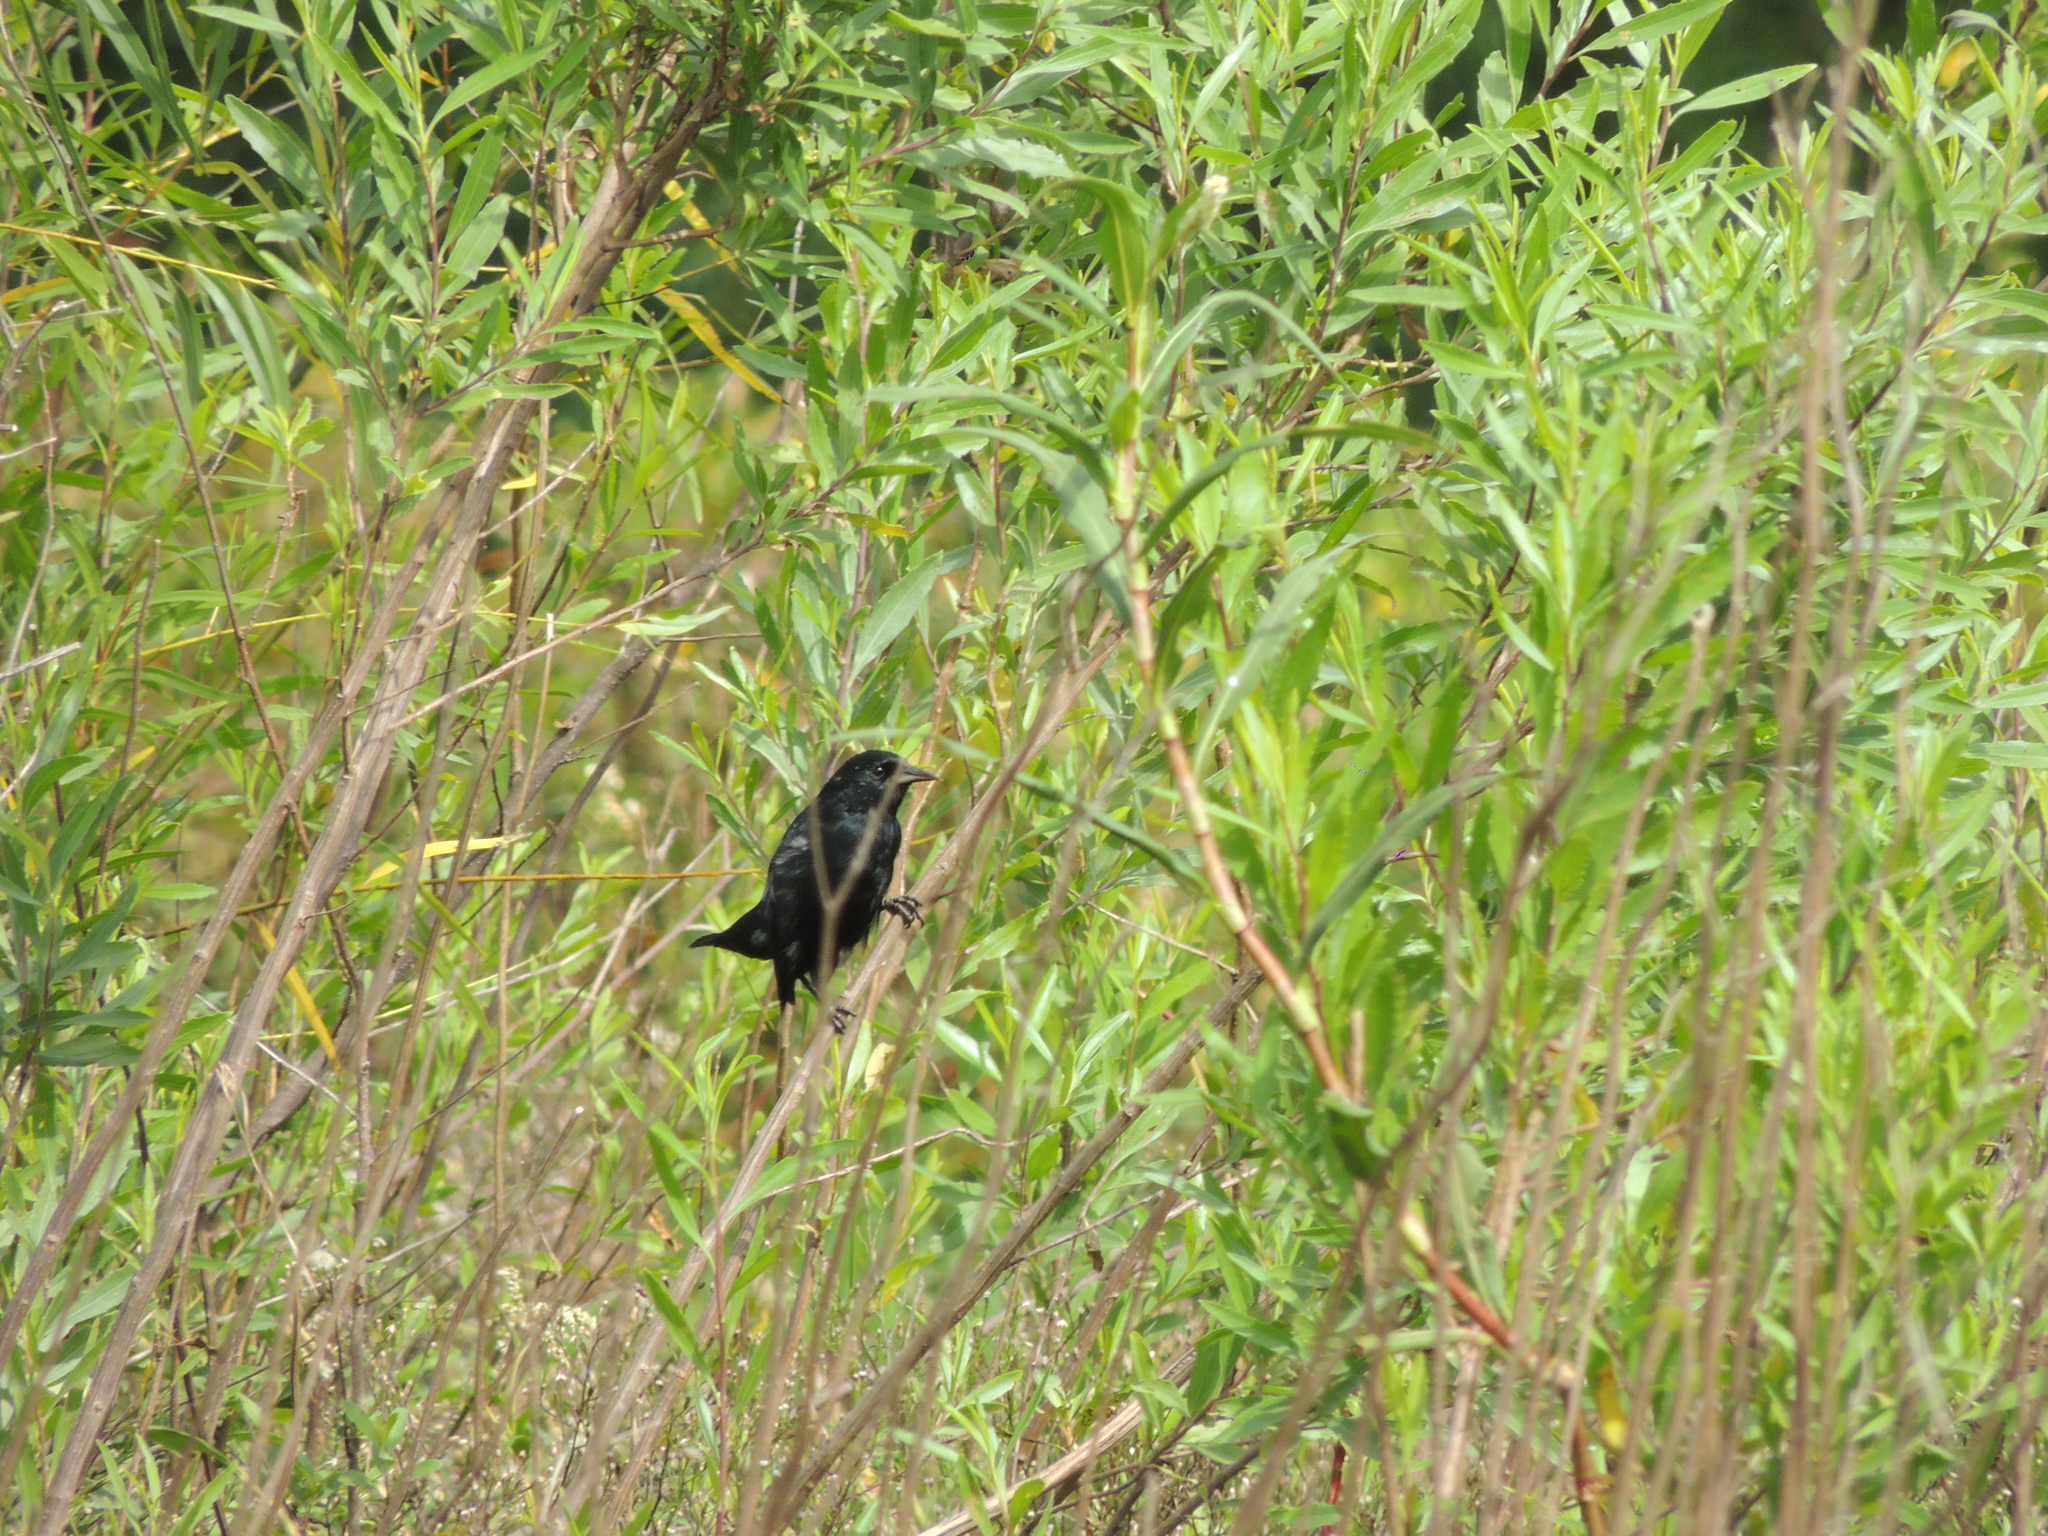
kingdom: Animalia
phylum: Chordata
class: Aves
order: Passeriformes
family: Icteridae
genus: Agelasticus
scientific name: Agelasticus cyanopus
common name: Unicolored blackbird
